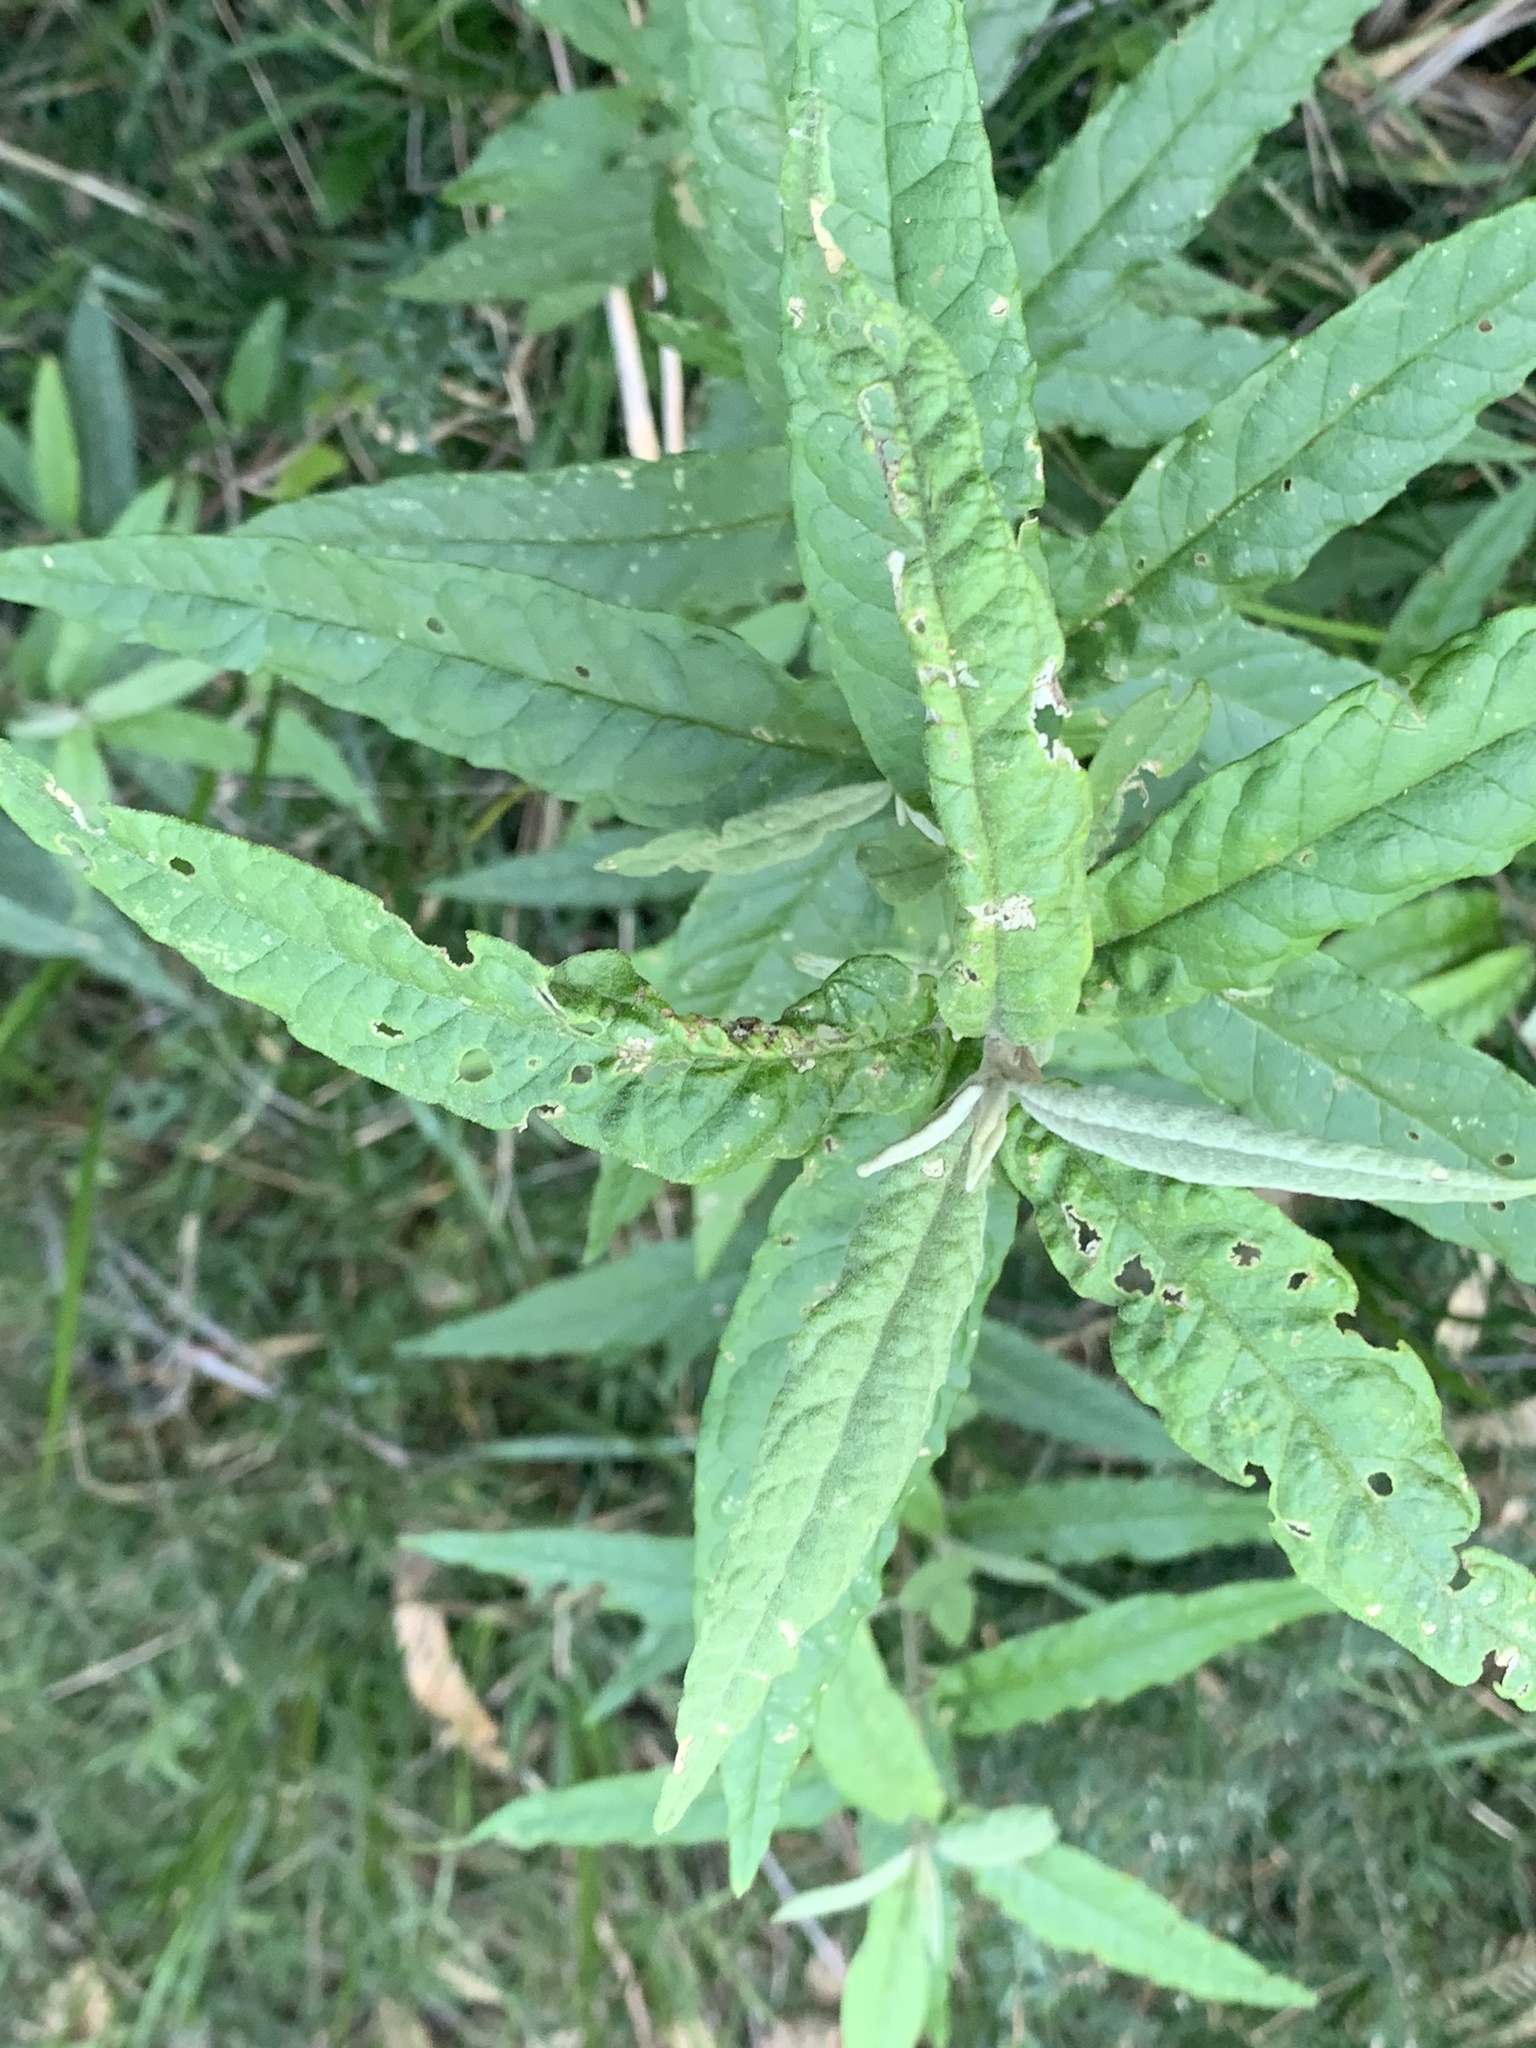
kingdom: Plantae
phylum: Tracheophyta
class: Magnoliopsida
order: Asterales
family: Asteraceae
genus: Olearia
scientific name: Olearia lirata
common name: Dusty daisybush
